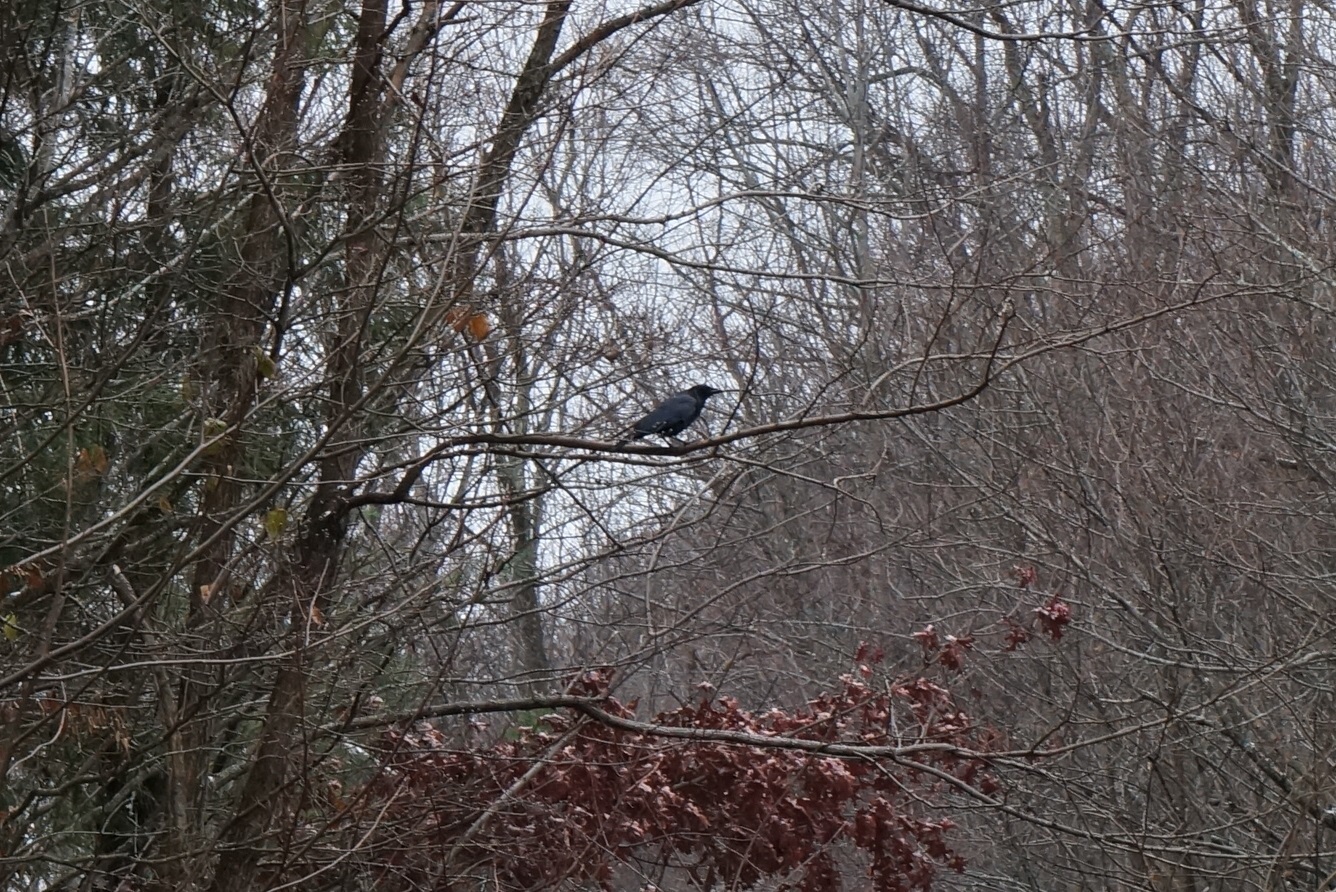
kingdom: Animalia
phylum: Chordata
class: Aves
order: Passeriformes
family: Corvidae
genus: Corvus
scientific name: Corvus brachyrhynchos
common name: American crow
